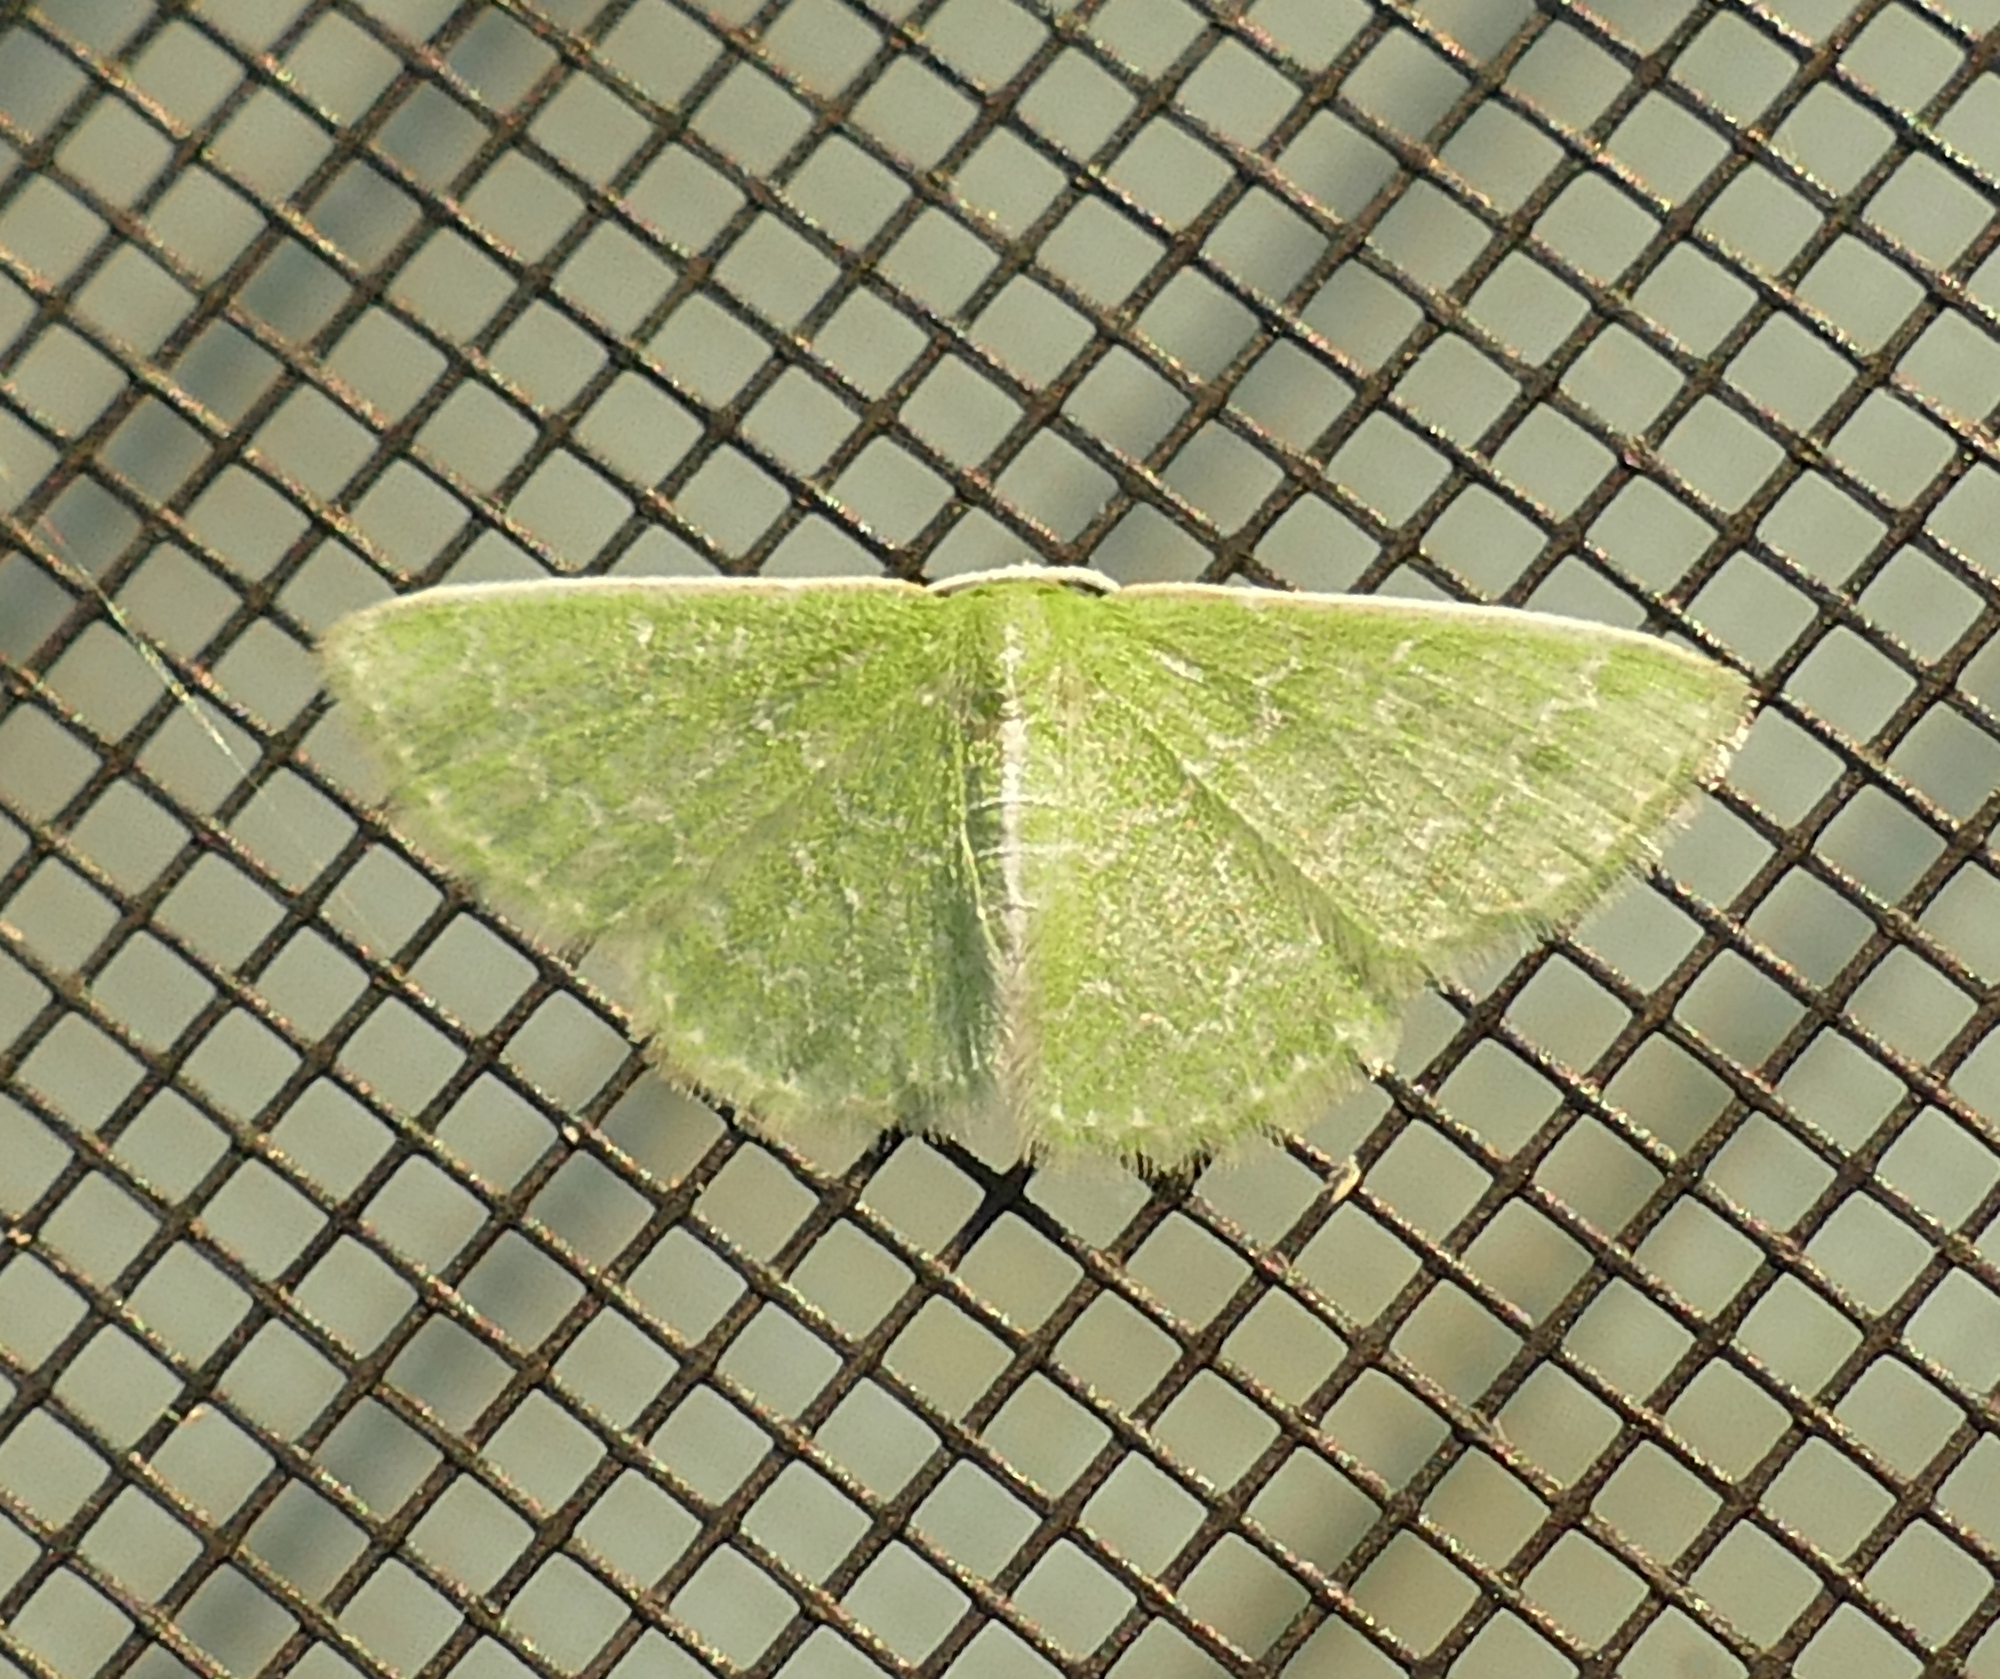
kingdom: Animalia
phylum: Arthropoda
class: Insecta
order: Lepidoptera
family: Geometridae
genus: Synchlora
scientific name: Synchlora frondaria
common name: Southern emerald
